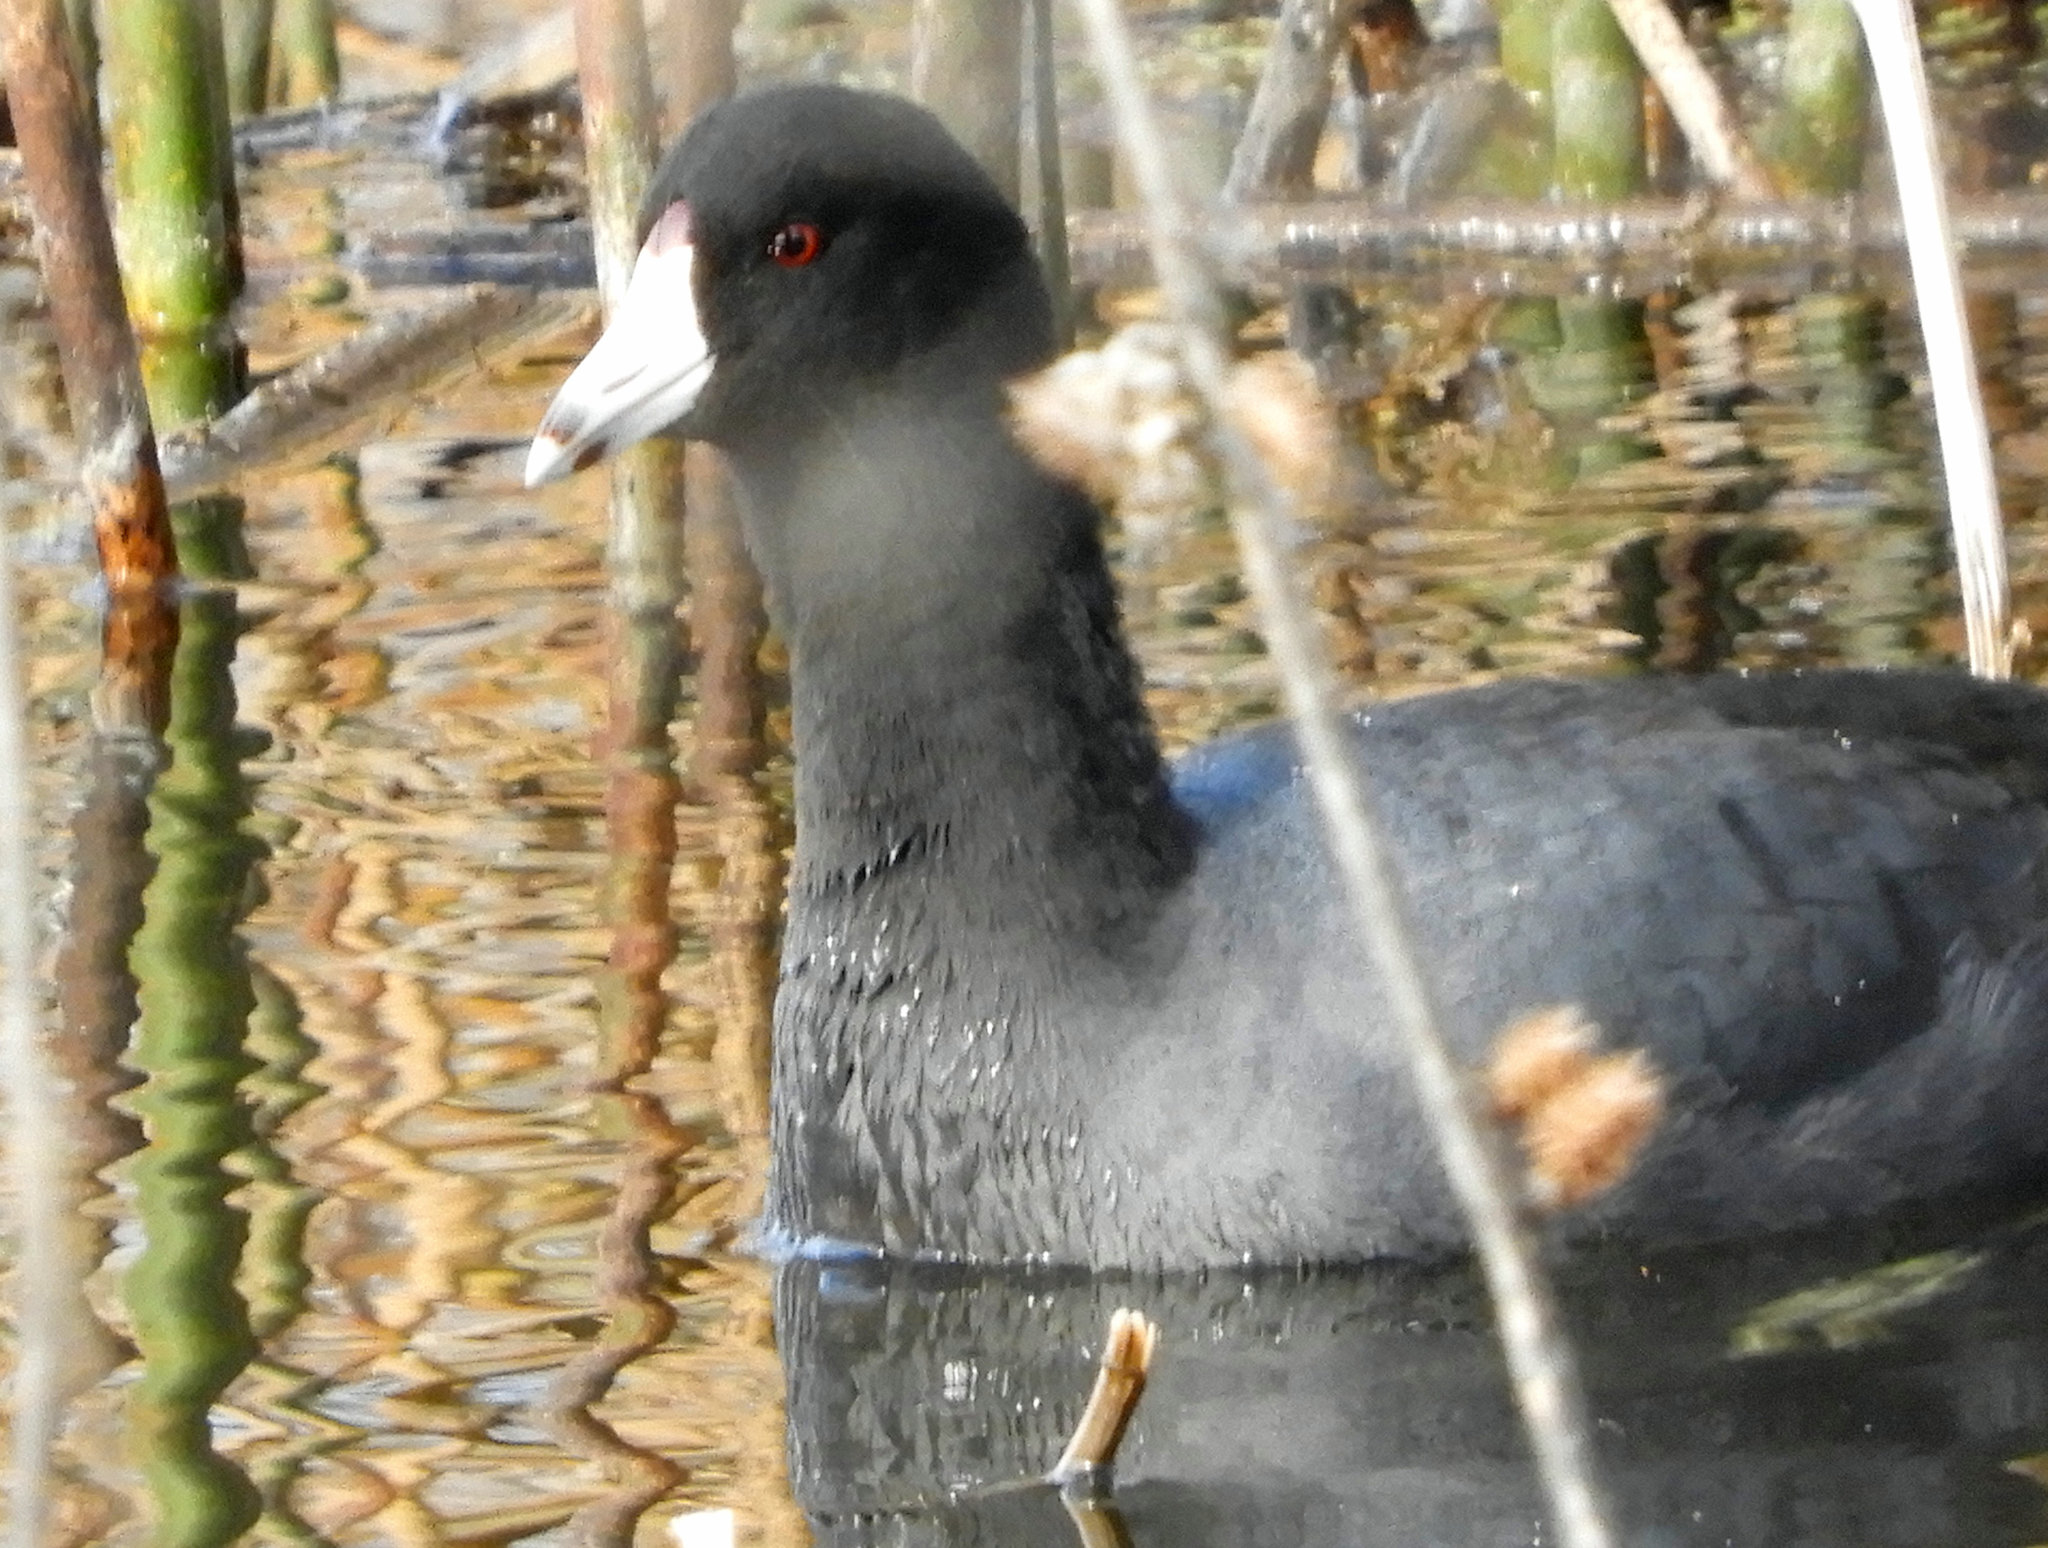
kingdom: Animalia
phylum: Chordata
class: Aves
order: Gruiformes
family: Rallidae
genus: Fulica
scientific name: Fulica americana
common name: American coot
